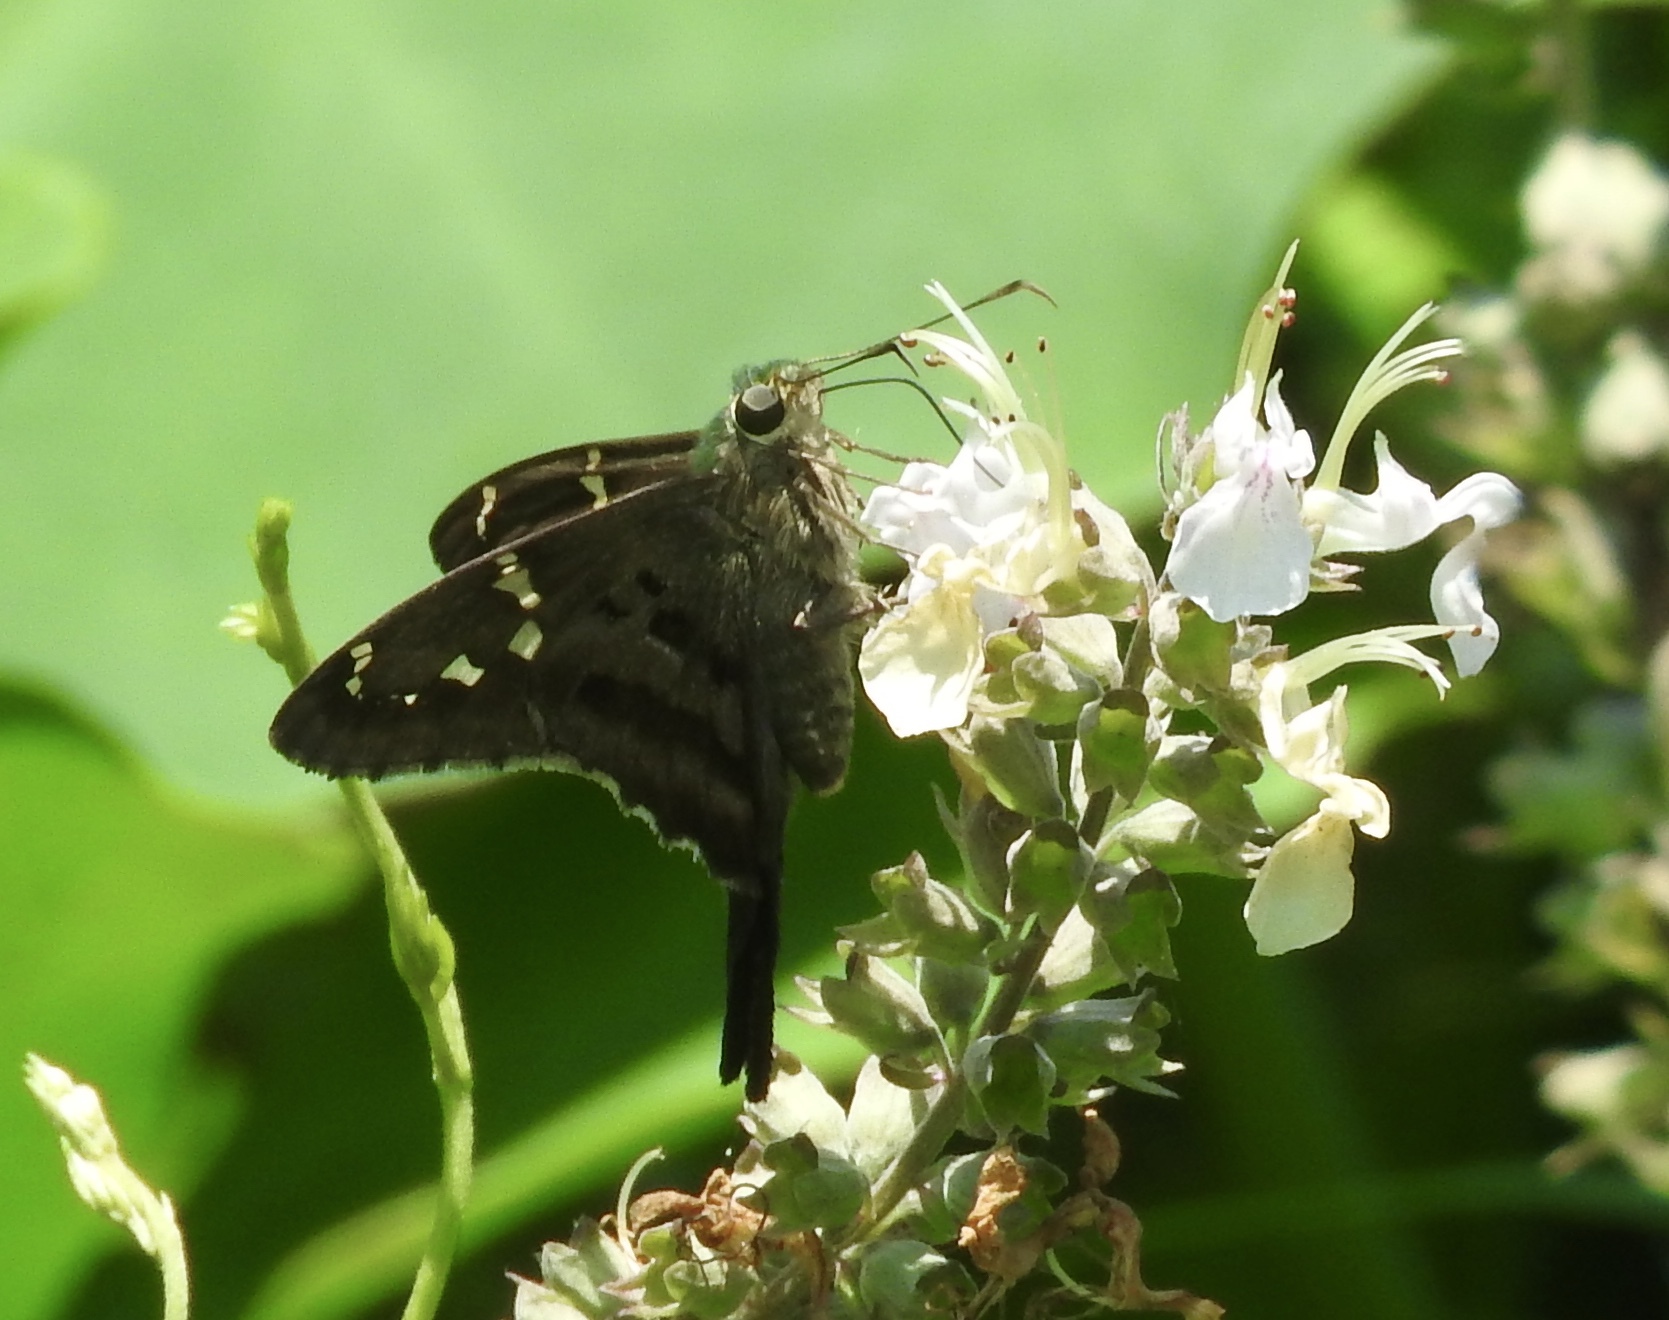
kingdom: Animalia
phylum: Arthropoda
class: Insecta
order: Lepidoptera
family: Hesperiidae
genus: Urbanus
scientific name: Urbanus proteus
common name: Long-tailed skipper
